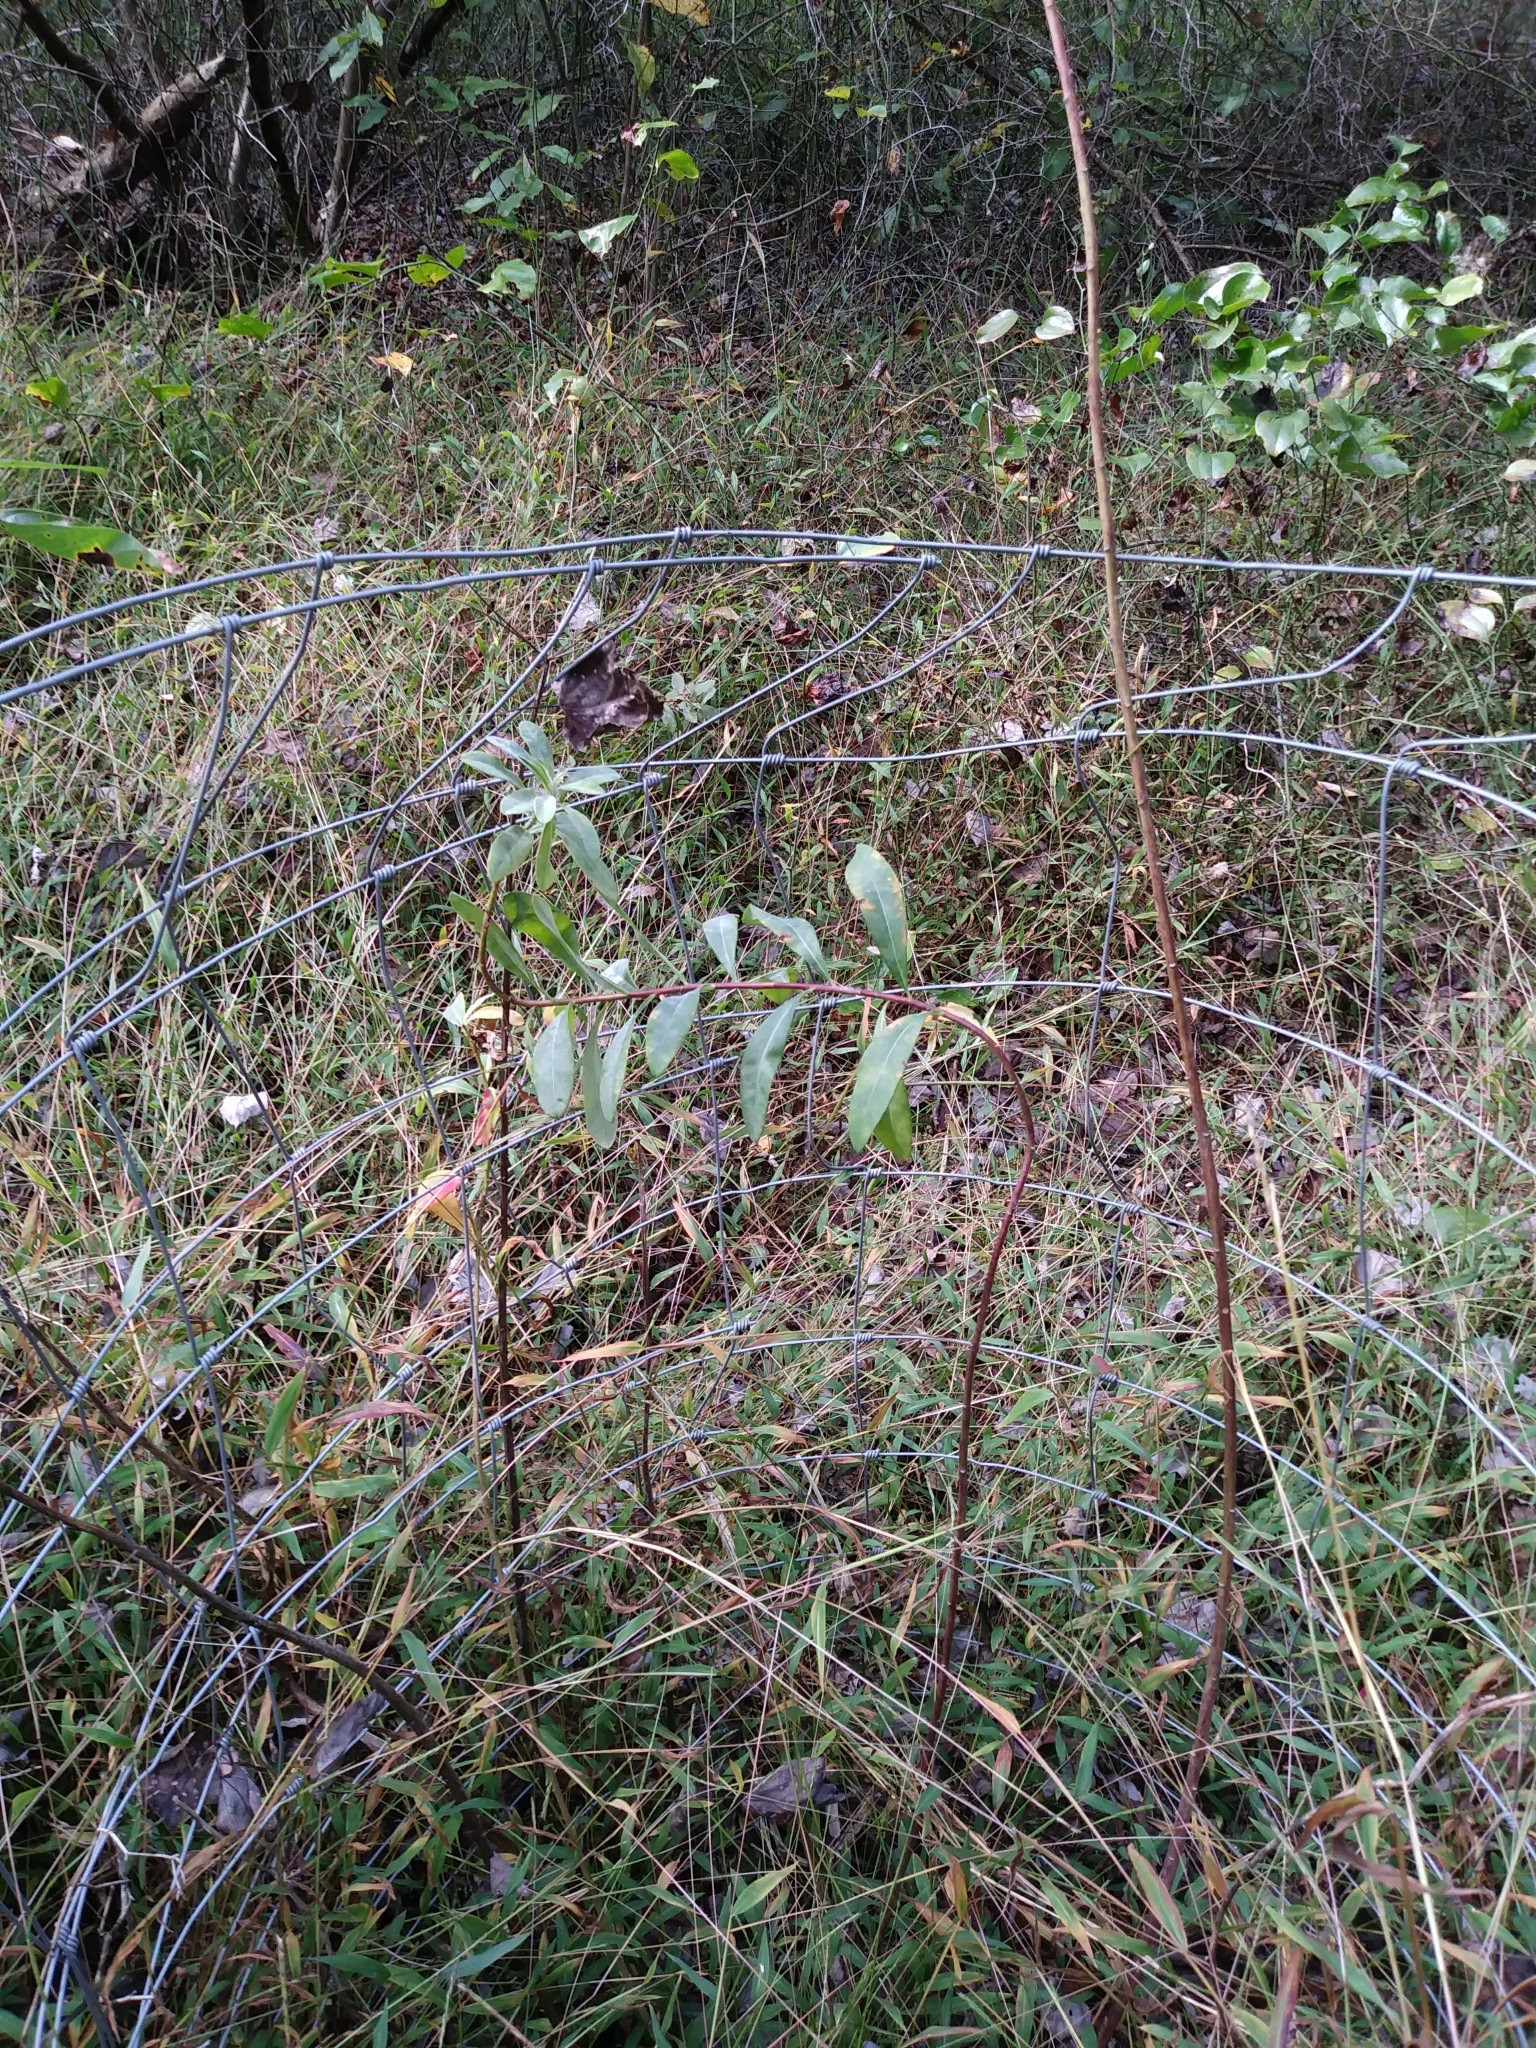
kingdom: Plantae
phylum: Tracheophyta
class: Magnoliopsida
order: Malpighiales
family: Euphorbiaceae
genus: Euphorbia
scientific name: Euphorbia purpurea
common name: Darlington's spurge
